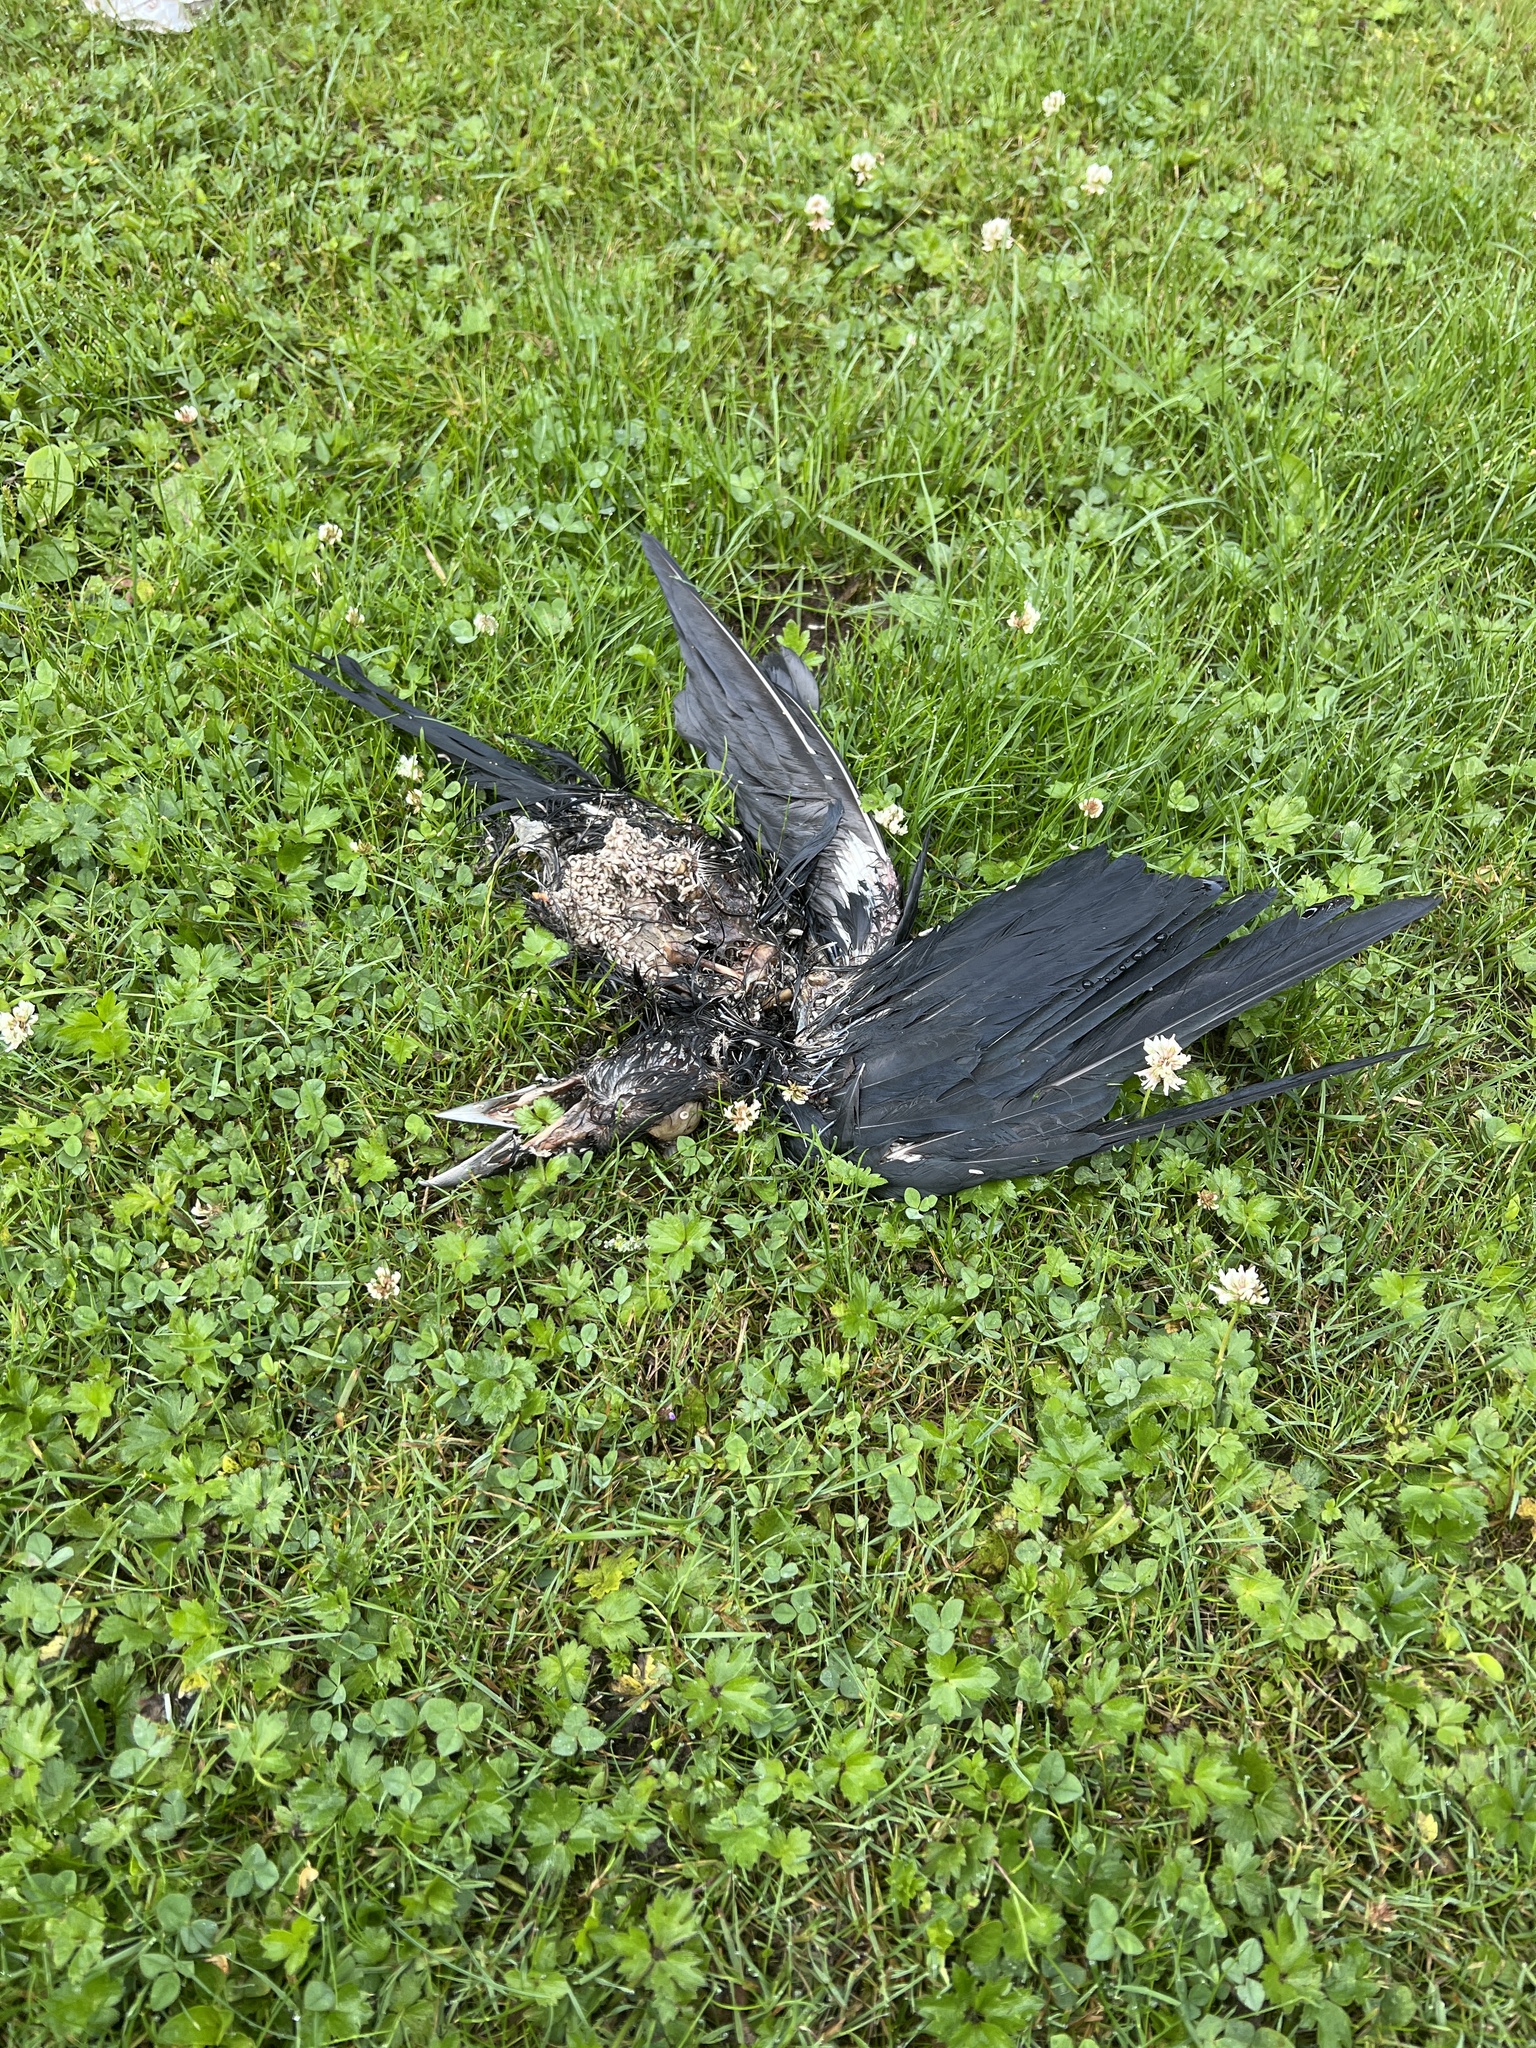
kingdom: Animalia
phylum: Chordata
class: Aves
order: Passeriformes
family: Corvidae
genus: Corvus
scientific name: Corvus brachyrhynchos
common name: American crow
